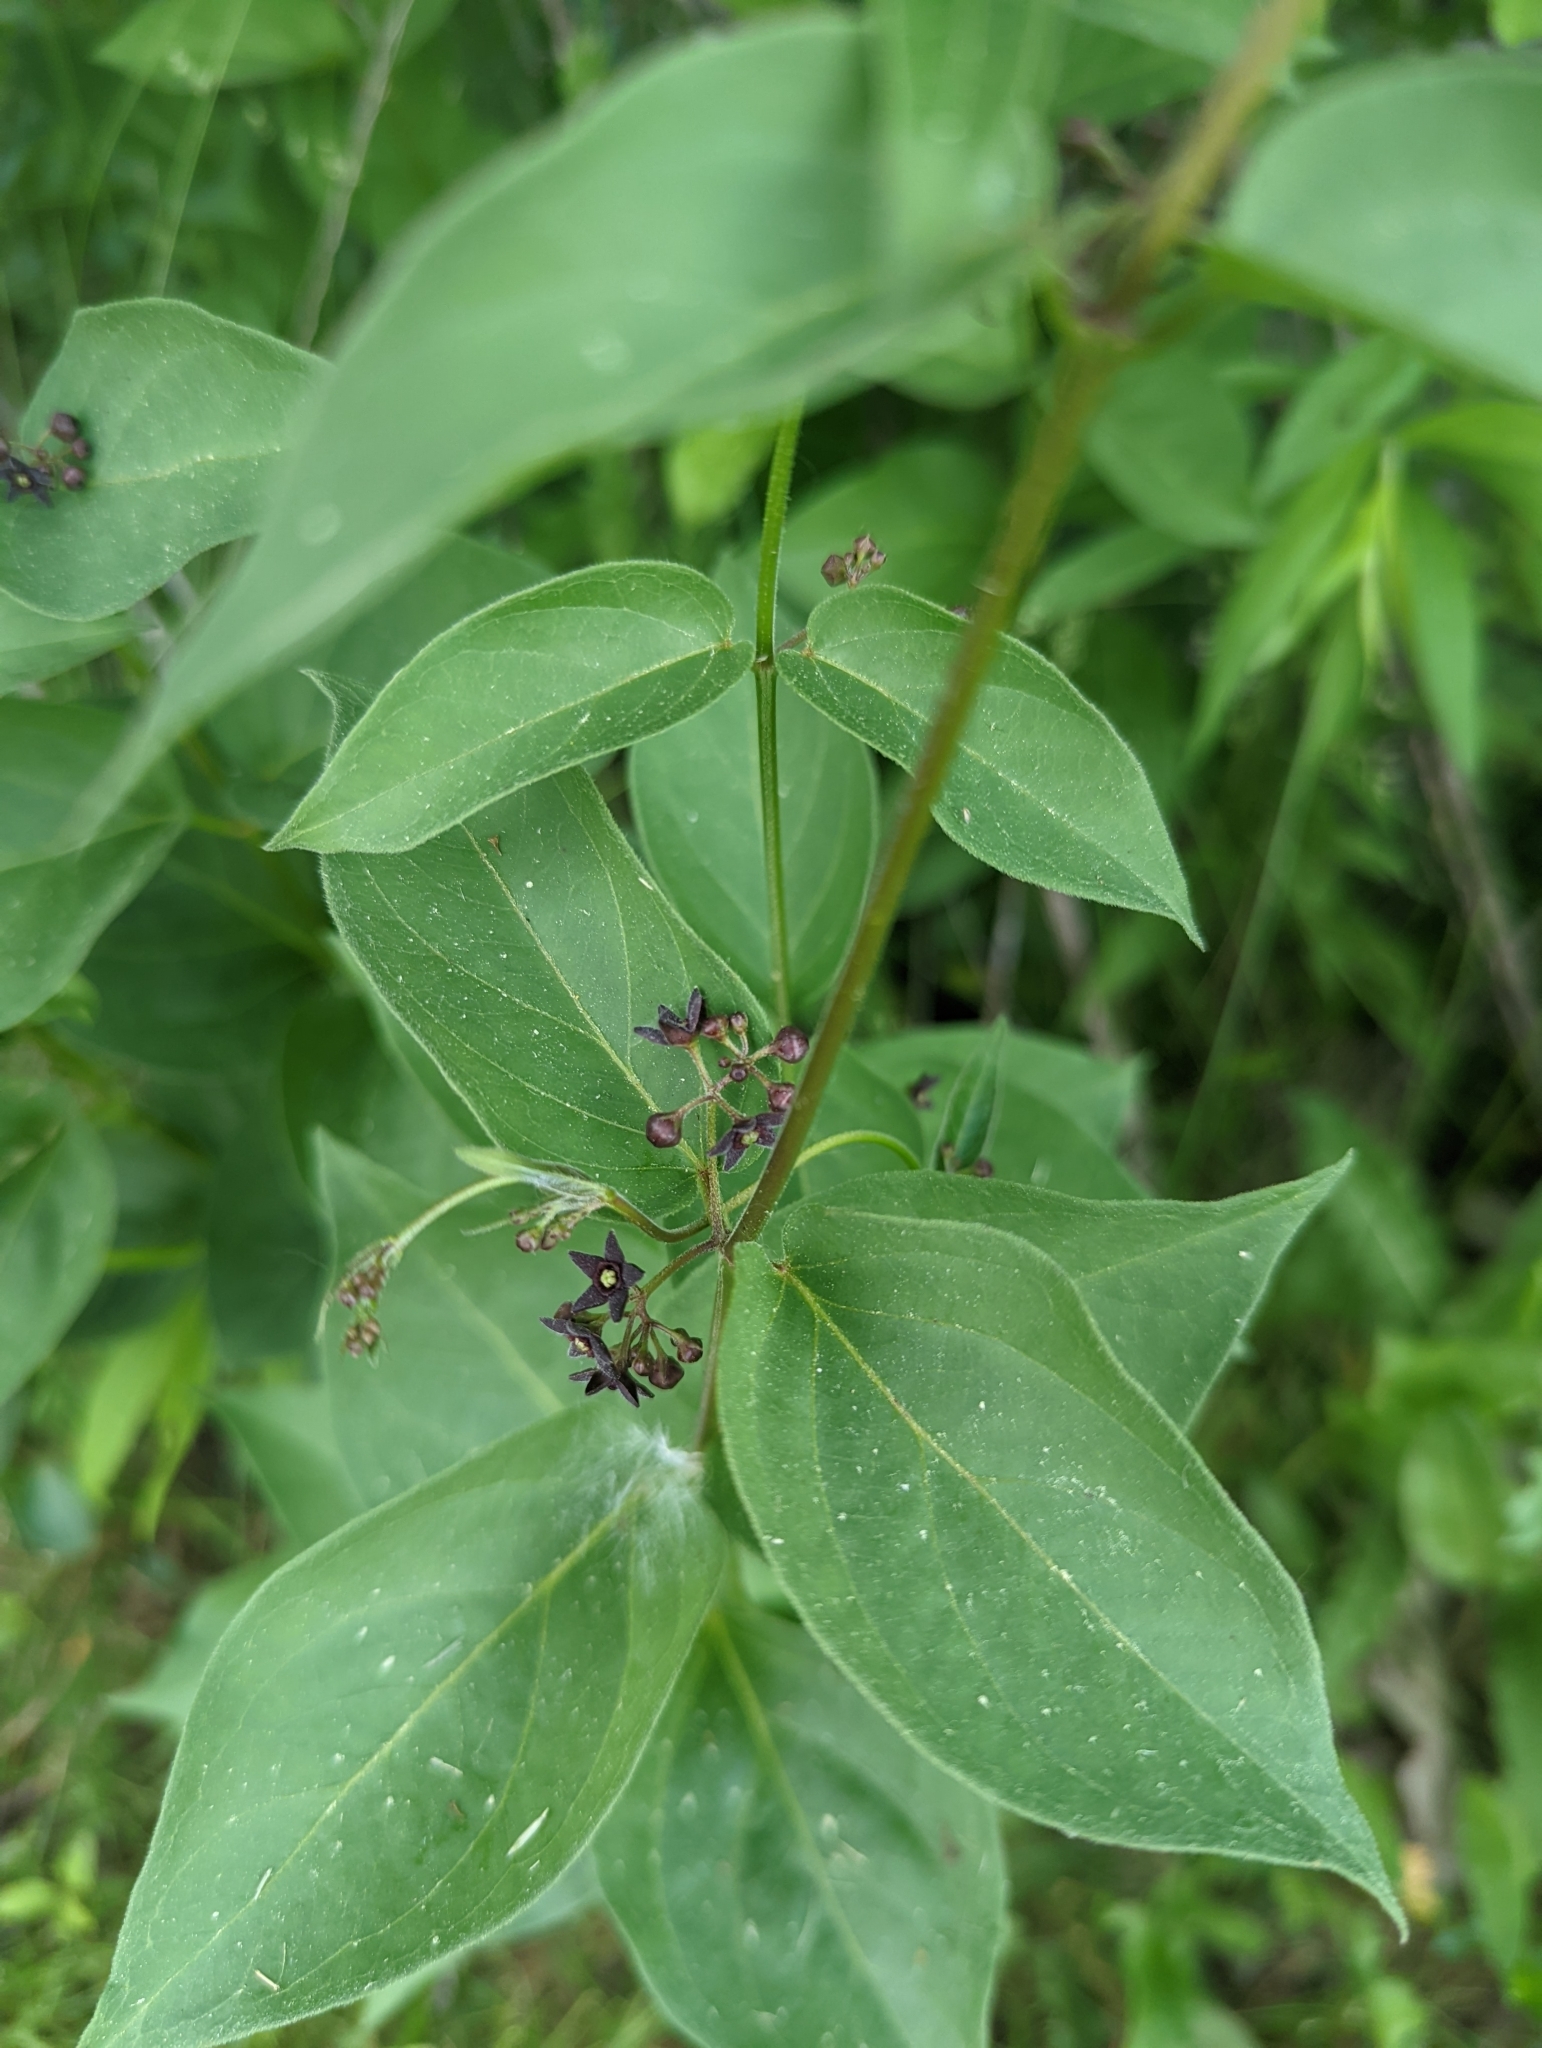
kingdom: Plantae
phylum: Tracheophyta
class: Magnoliopsida
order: Gentianales
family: Apocynaceae
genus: Vincetoxicum
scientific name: Vincetoxicum nigrum
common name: Black swallow-wort
